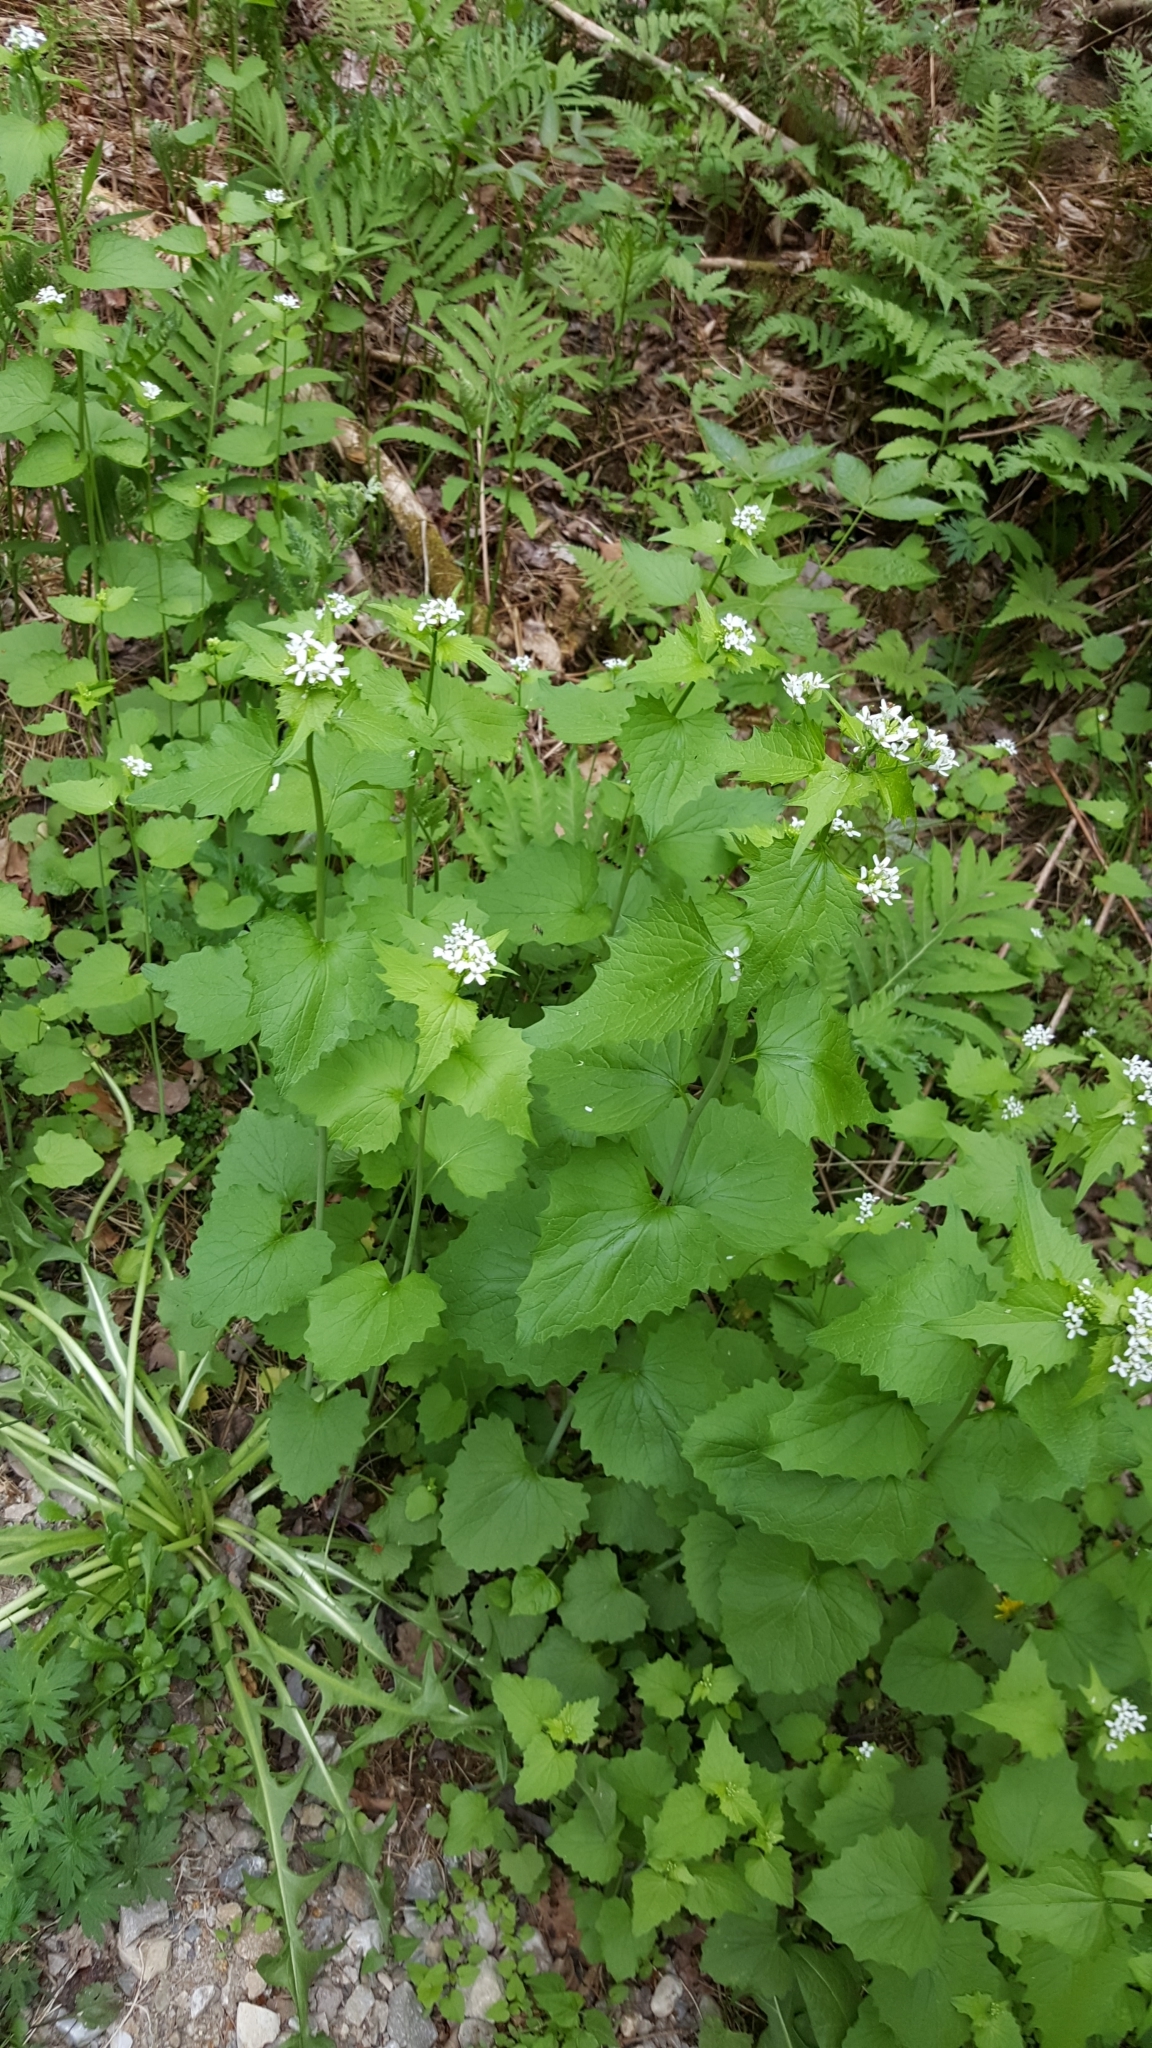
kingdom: Plantae
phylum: Tracheophyta
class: Magnoliopsida
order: Brassicales
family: Brassicaceae
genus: Alliaria
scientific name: Alliaria petiolata
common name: Garlic mustard
